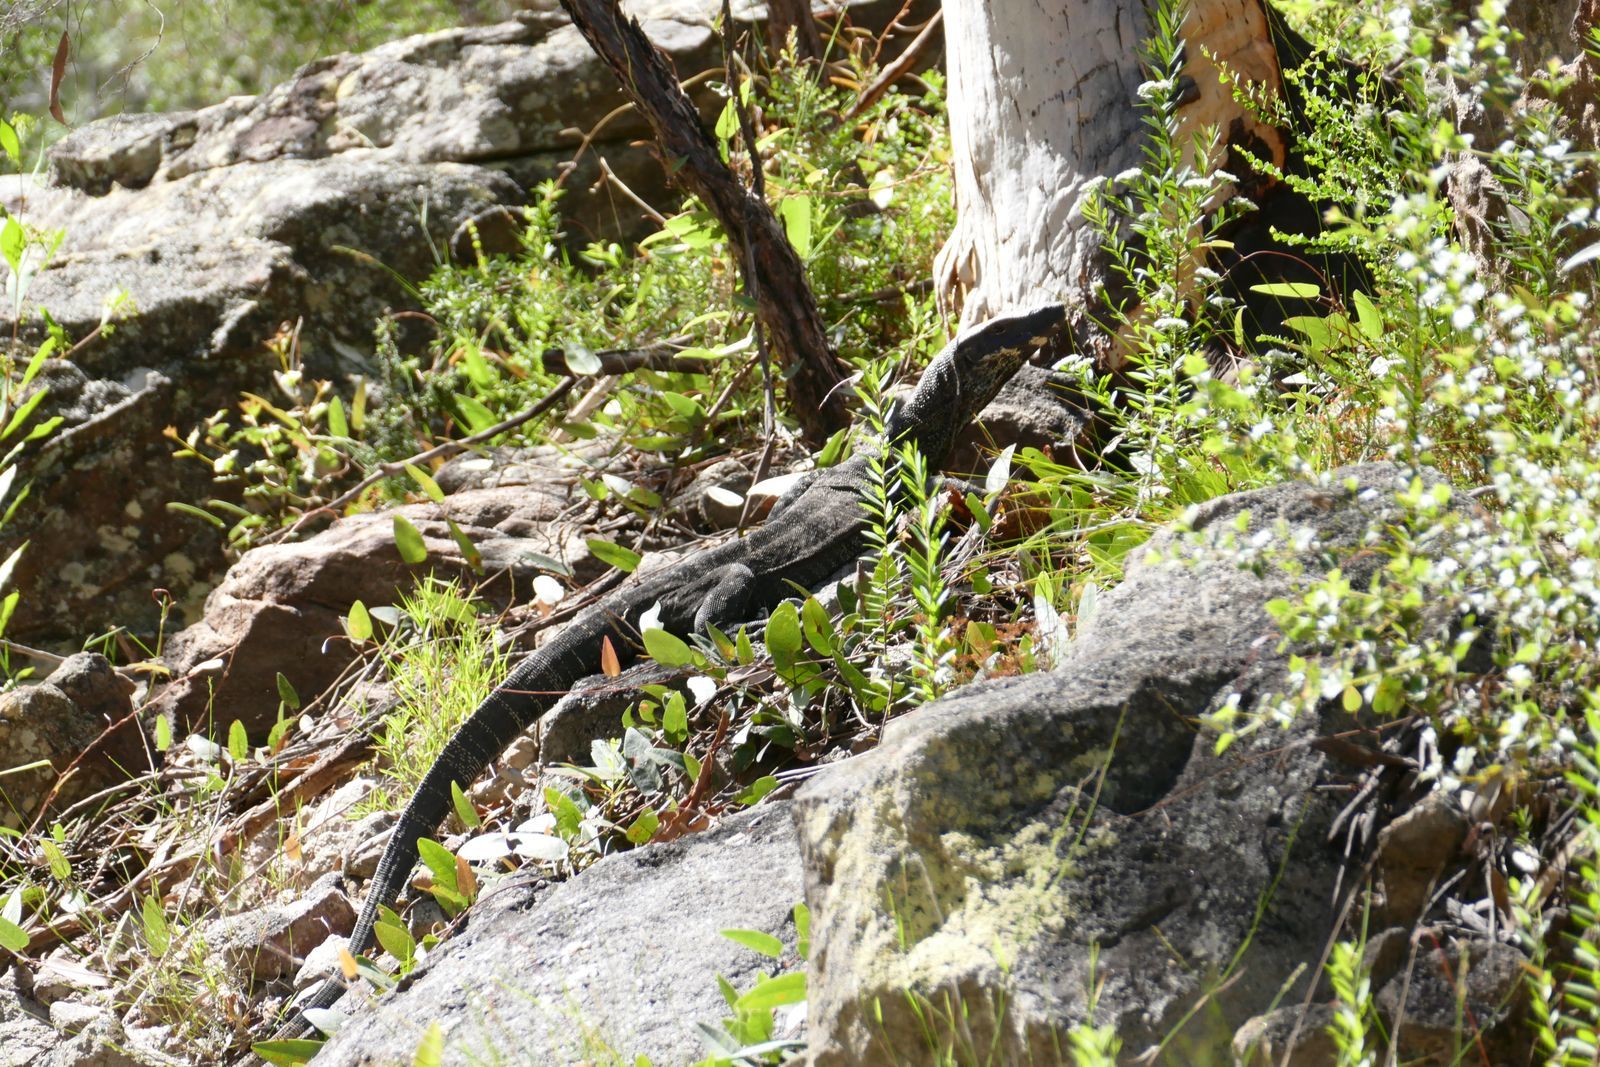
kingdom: Animalia
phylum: Chordata
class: Squamata
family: Varanidae
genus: Varanus
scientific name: Varanus varius
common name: Lace monitor
